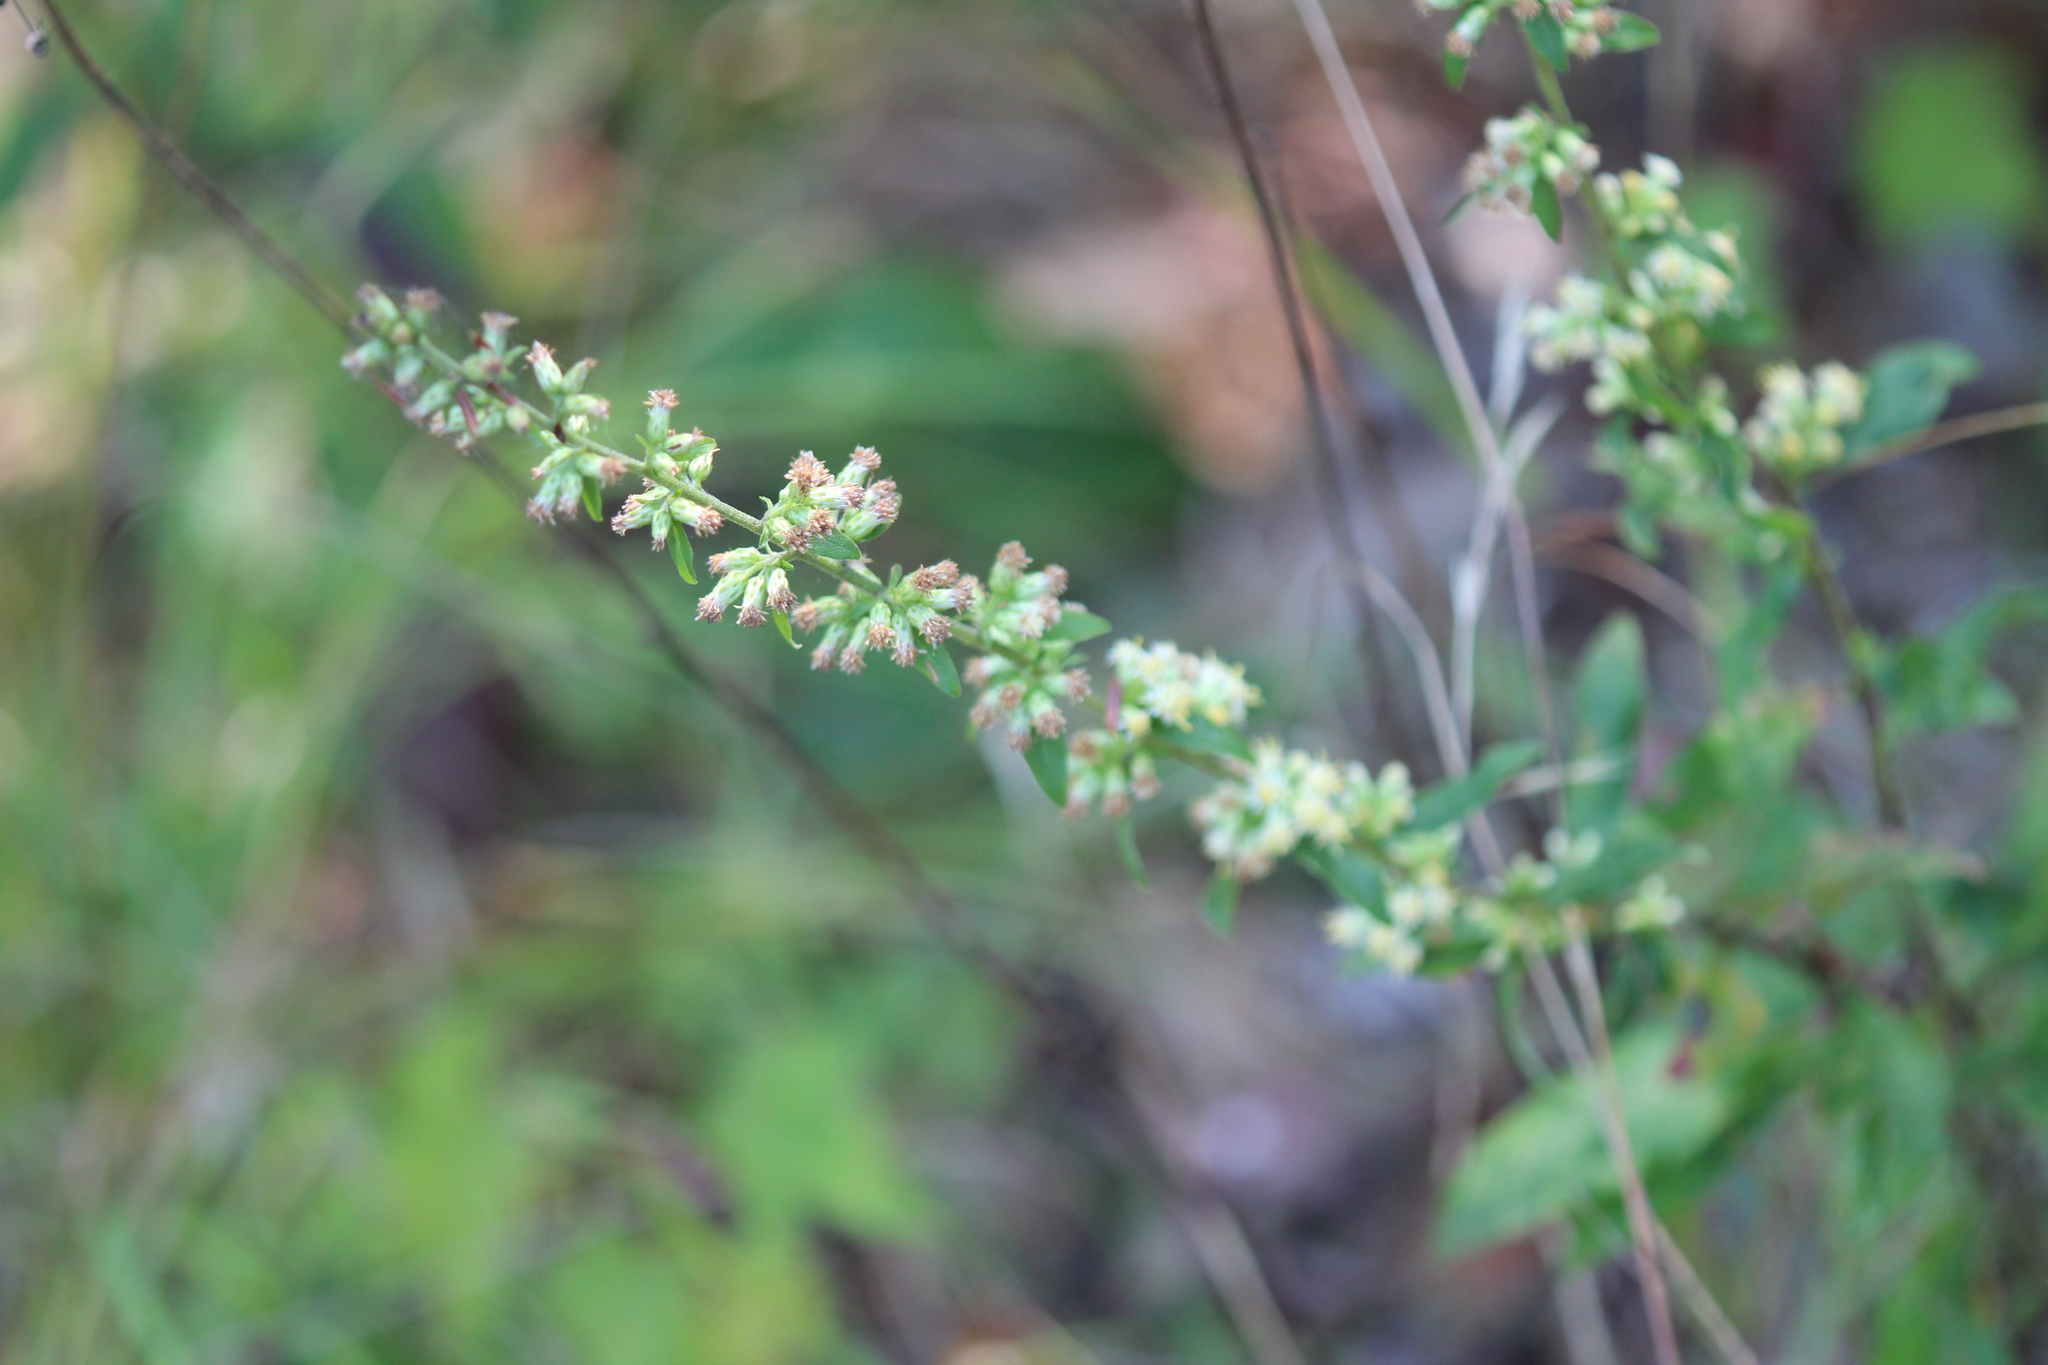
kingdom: Plantae
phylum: Tracheophyta
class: Magnoliopsida
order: Asterales
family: Asteraceae
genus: Solidago
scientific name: Solidago bicolor
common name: Silverrod
